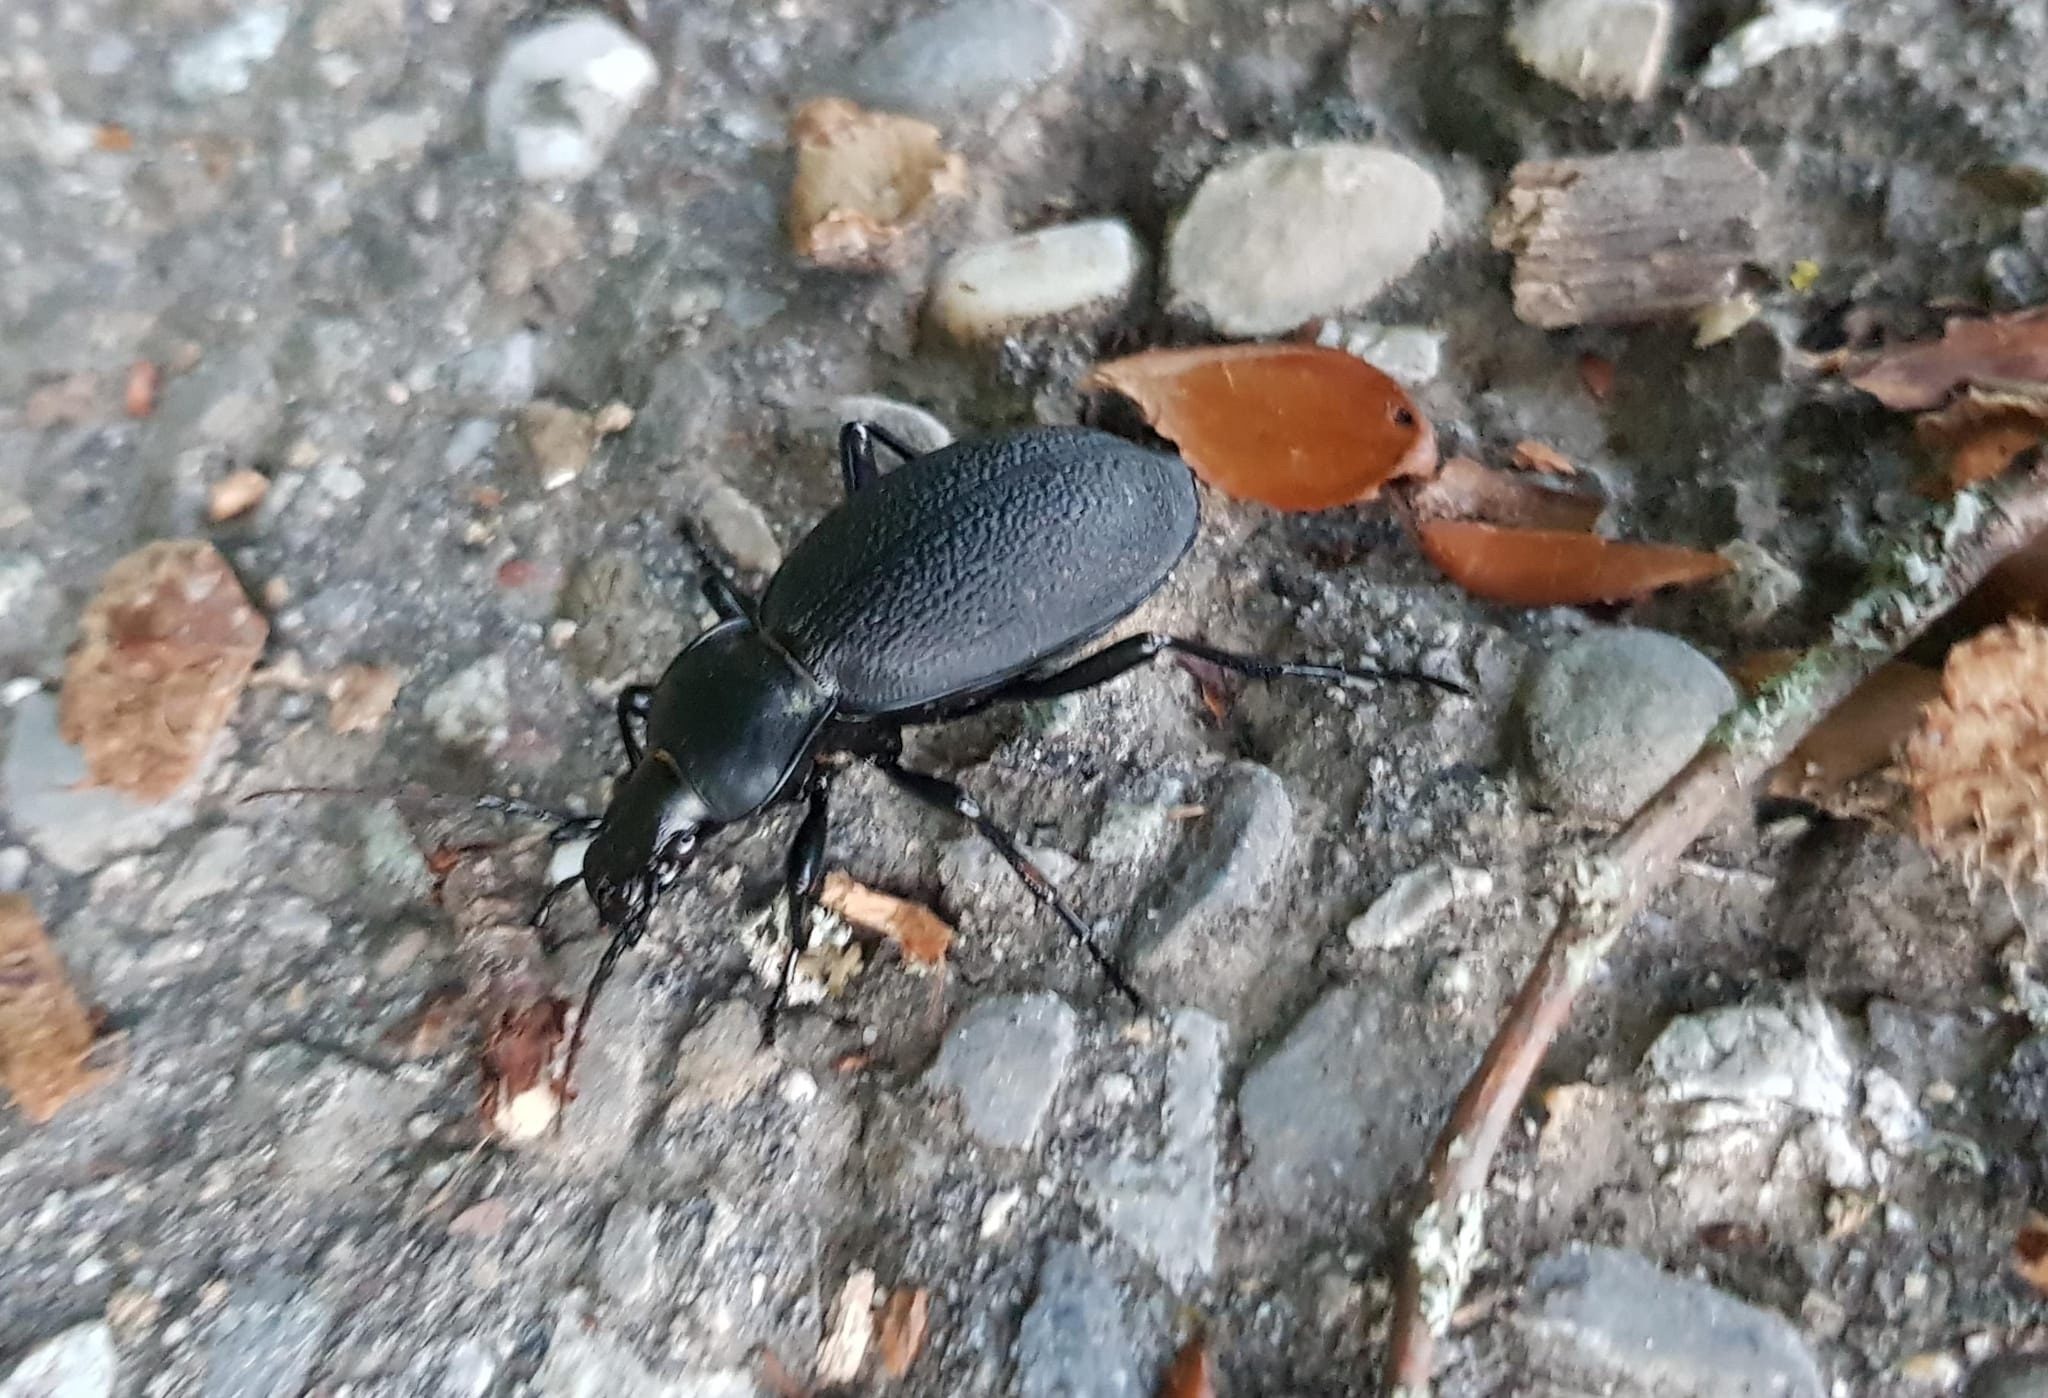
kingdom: Animalia
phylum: Arthropoda
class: Insecta
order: Coleoptera
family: Carabidae
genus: Carabus
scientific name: Carabus coriaceus
